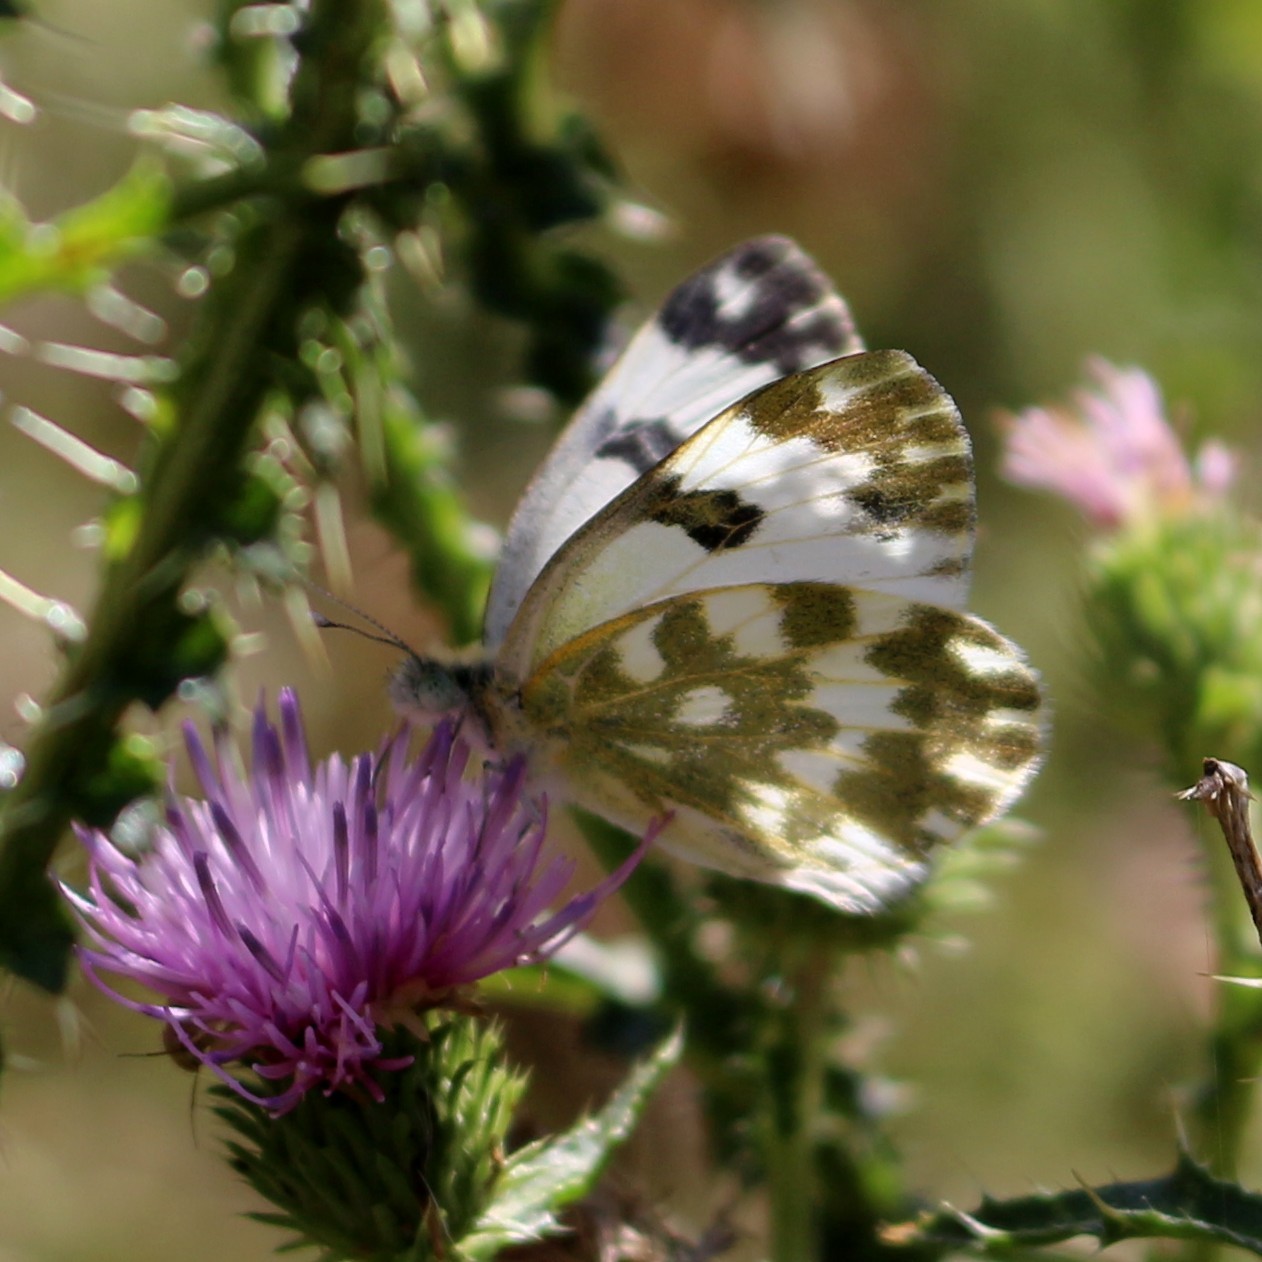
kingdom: Animalia
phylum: Arthropoda
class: Insecta
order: Lepidoptera
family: Pieridae
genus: Pontia
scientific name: Pontia edusa
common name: Eastern bath white
